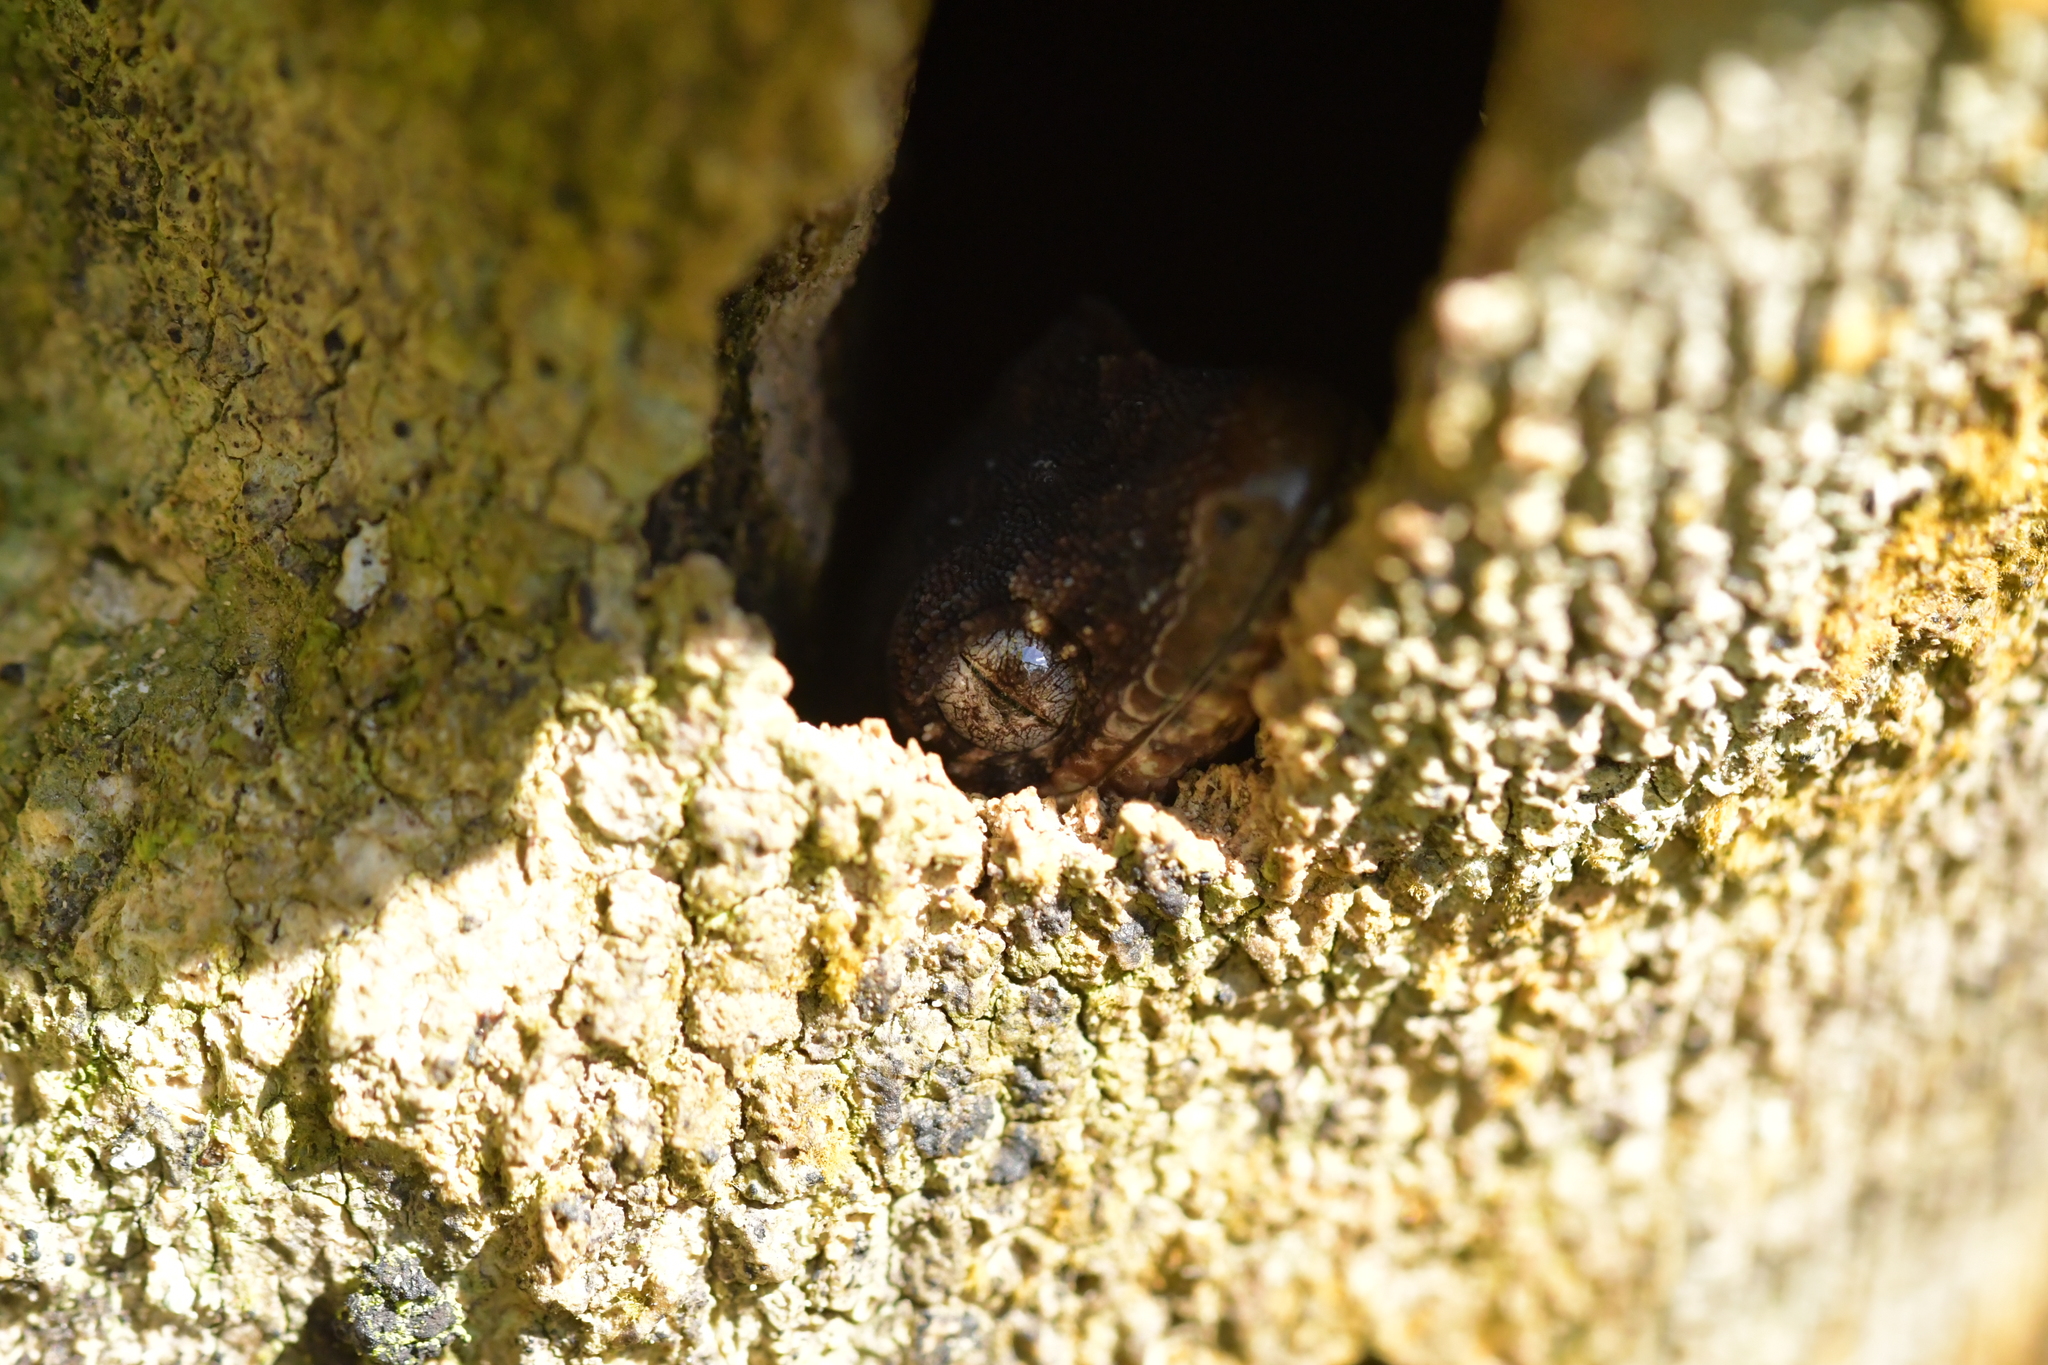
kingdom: Animalia
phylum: Chordata
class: Squamata
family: Diplodactylidae
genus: Mokopirirakau
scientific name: Mokopirirakau
